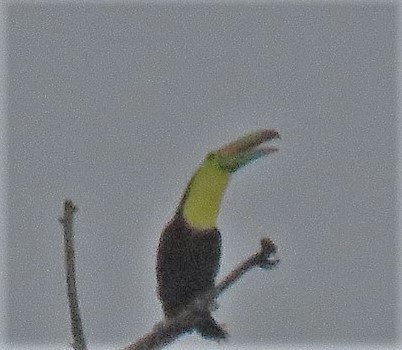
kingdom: Animalia
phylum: Chordata
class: Aves
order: Piciformes
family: Ramphastidae
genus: Ramphastos
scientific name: Ramphastos sulfuratus
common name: Keel-billed toucan
